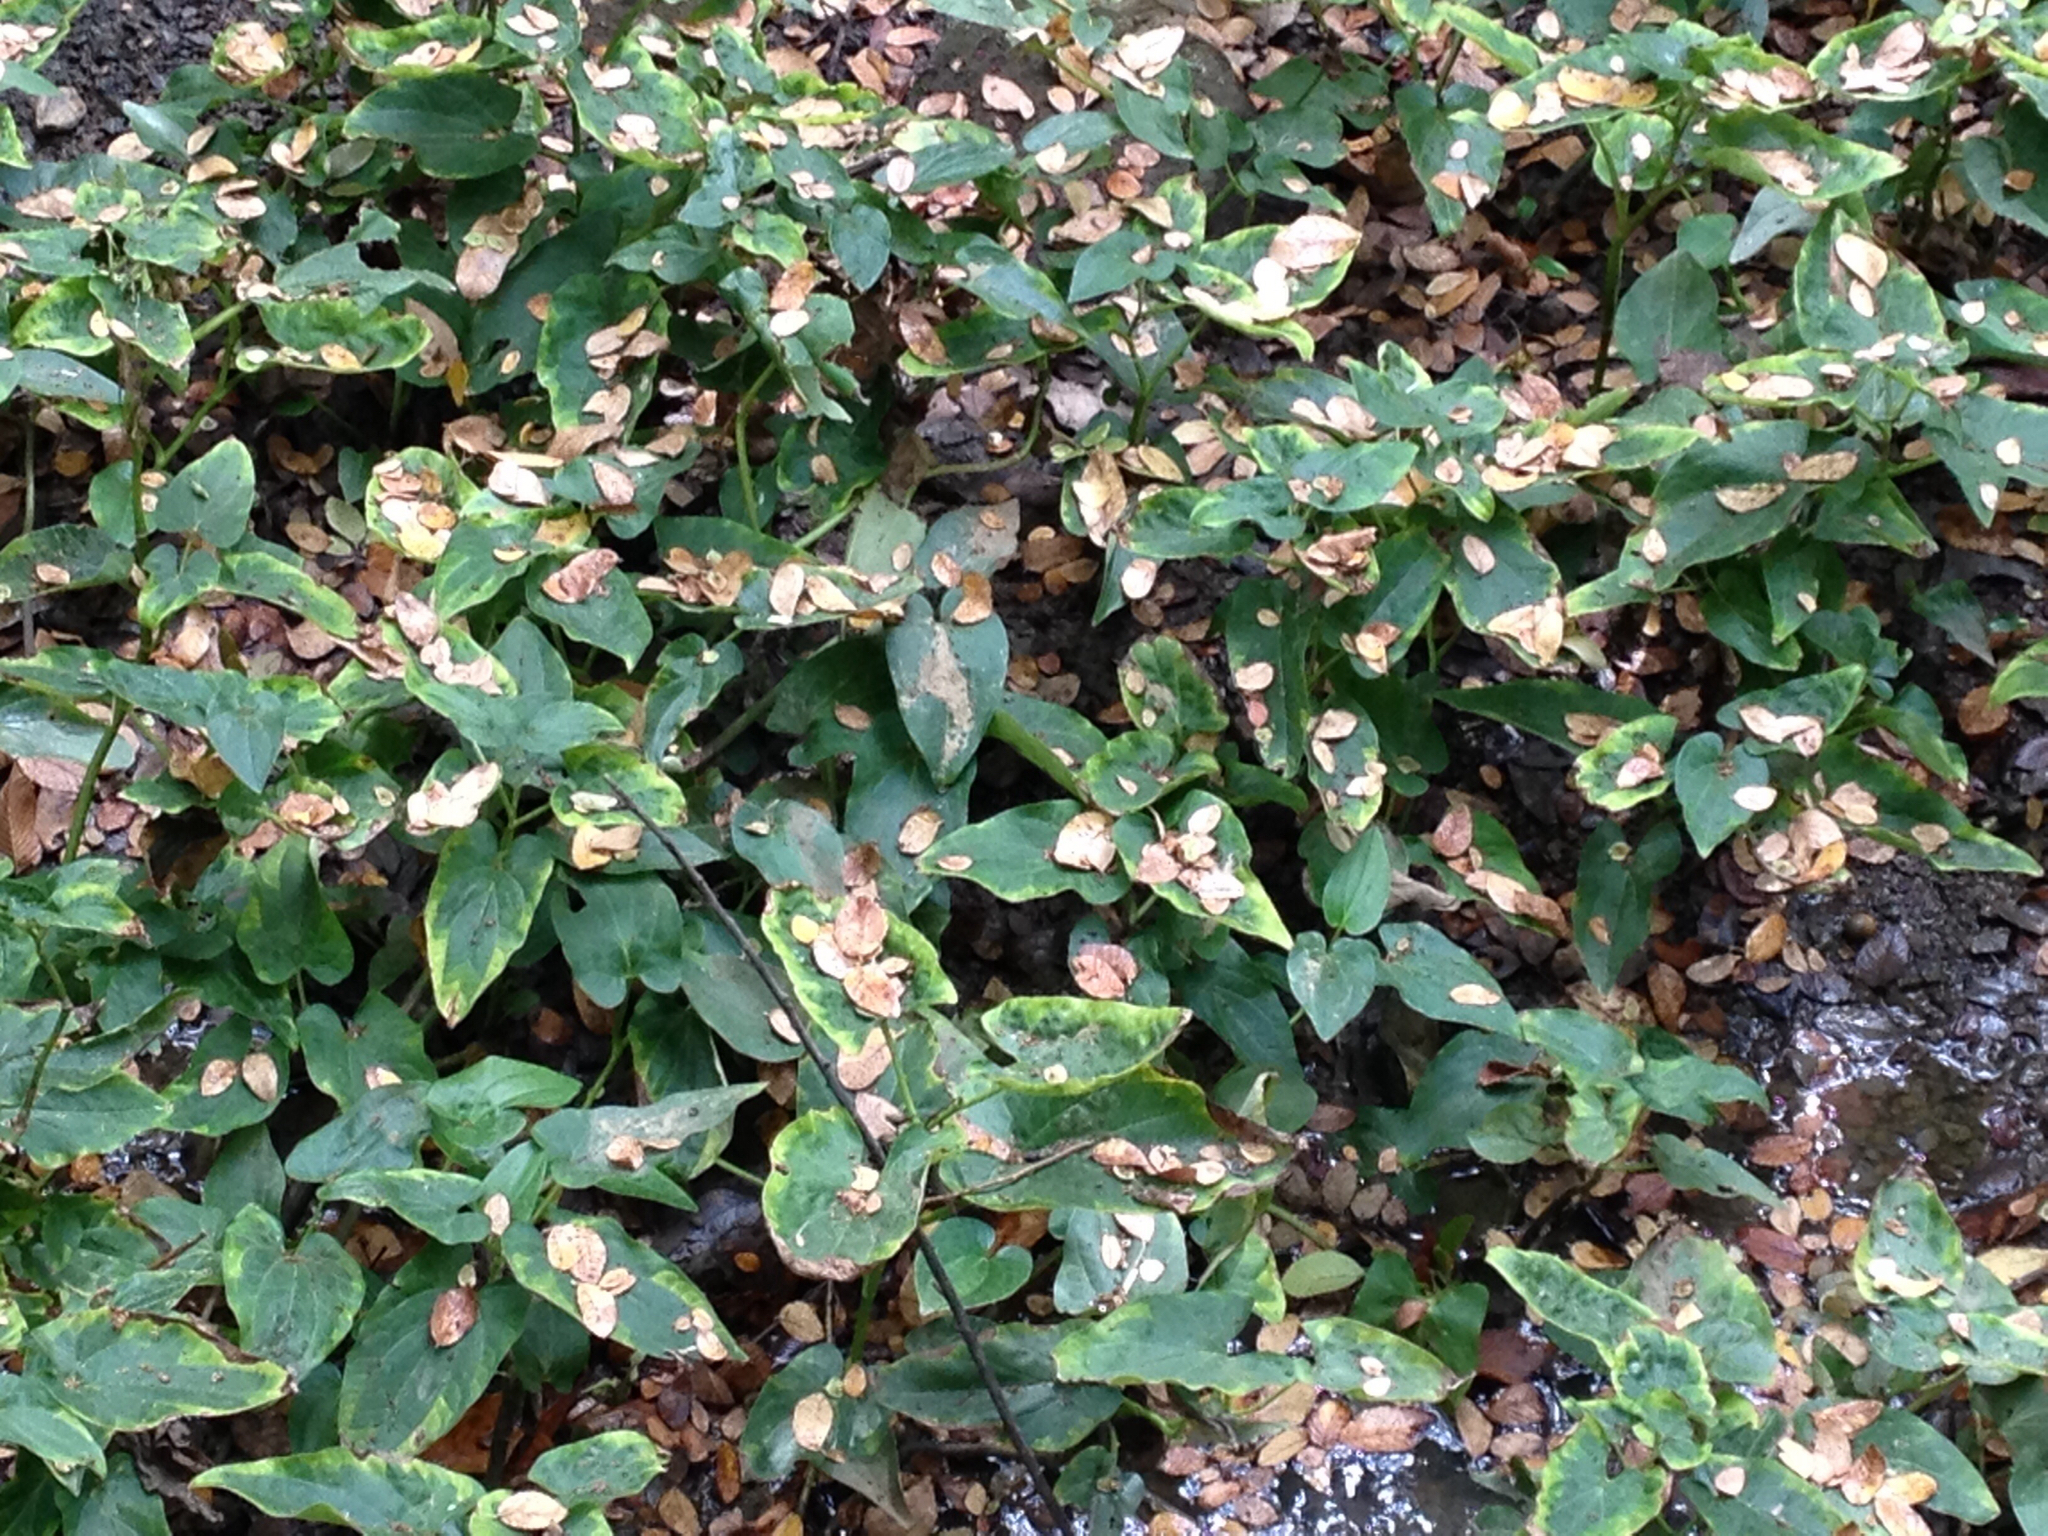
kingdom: Plantae
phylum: Tracheophyta
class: Magnoliopsida
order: Piperales
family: Saururaceae
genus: Saururus
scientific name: Saururus cernuus
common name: Lizard's-tail
